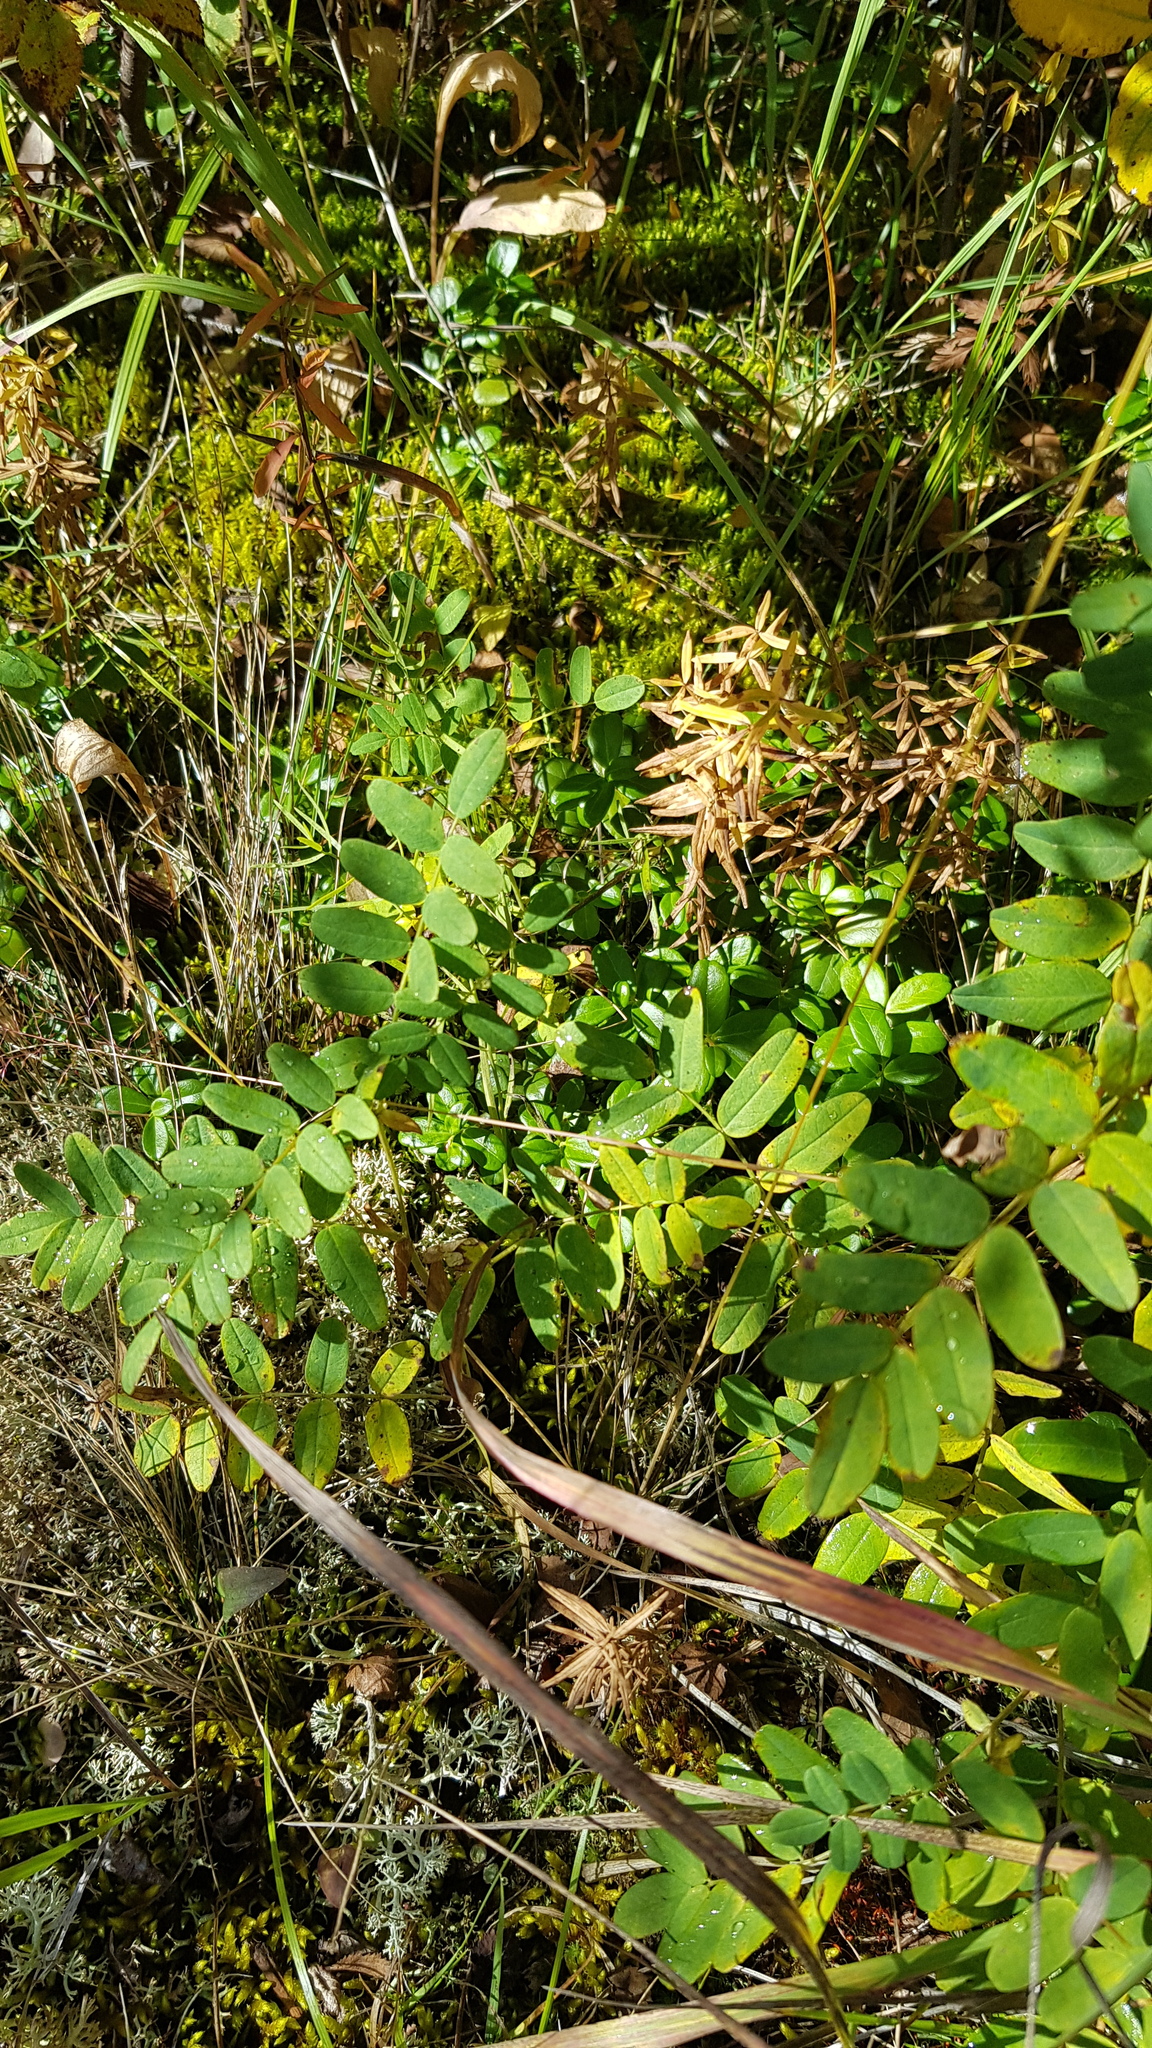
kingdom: Plantae
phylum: Tracheophyta
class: Magnoliopsida
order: Fabales
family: Fabaceae
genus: Astragalus
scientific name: Astragalus frigidus
